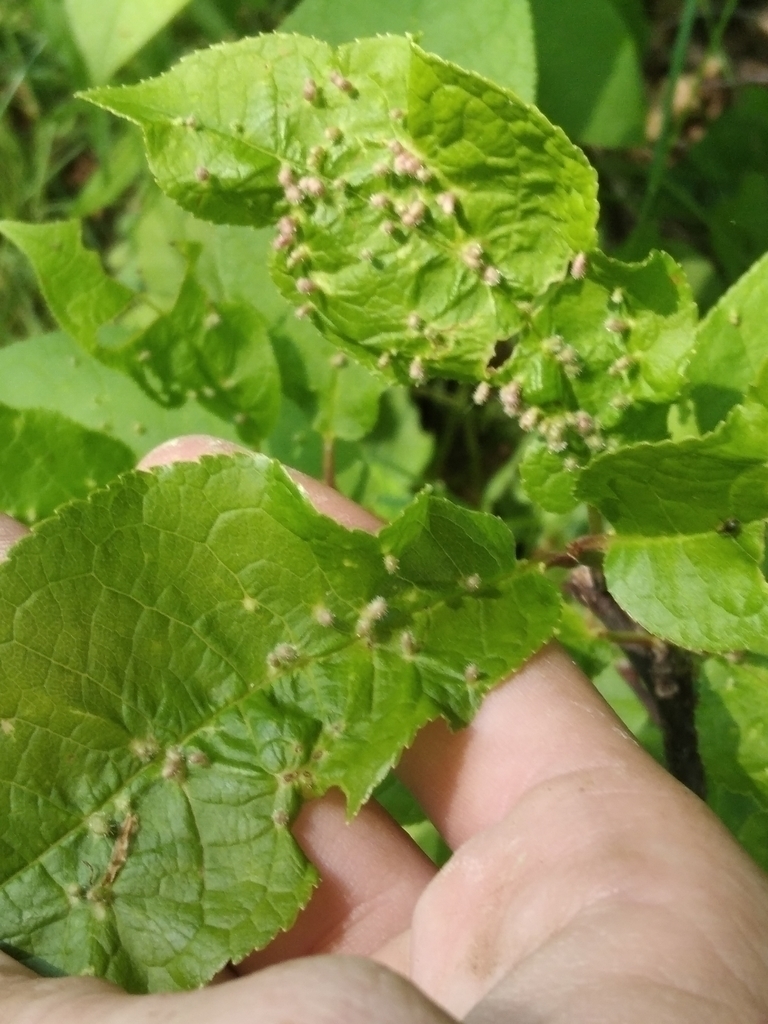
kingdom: Animalia
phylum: Arthropoda
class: Arachnida
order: Trombidiformes
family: Eriophyidae
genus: Phyllocoptes
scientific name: Phyllocoptes eupadi
